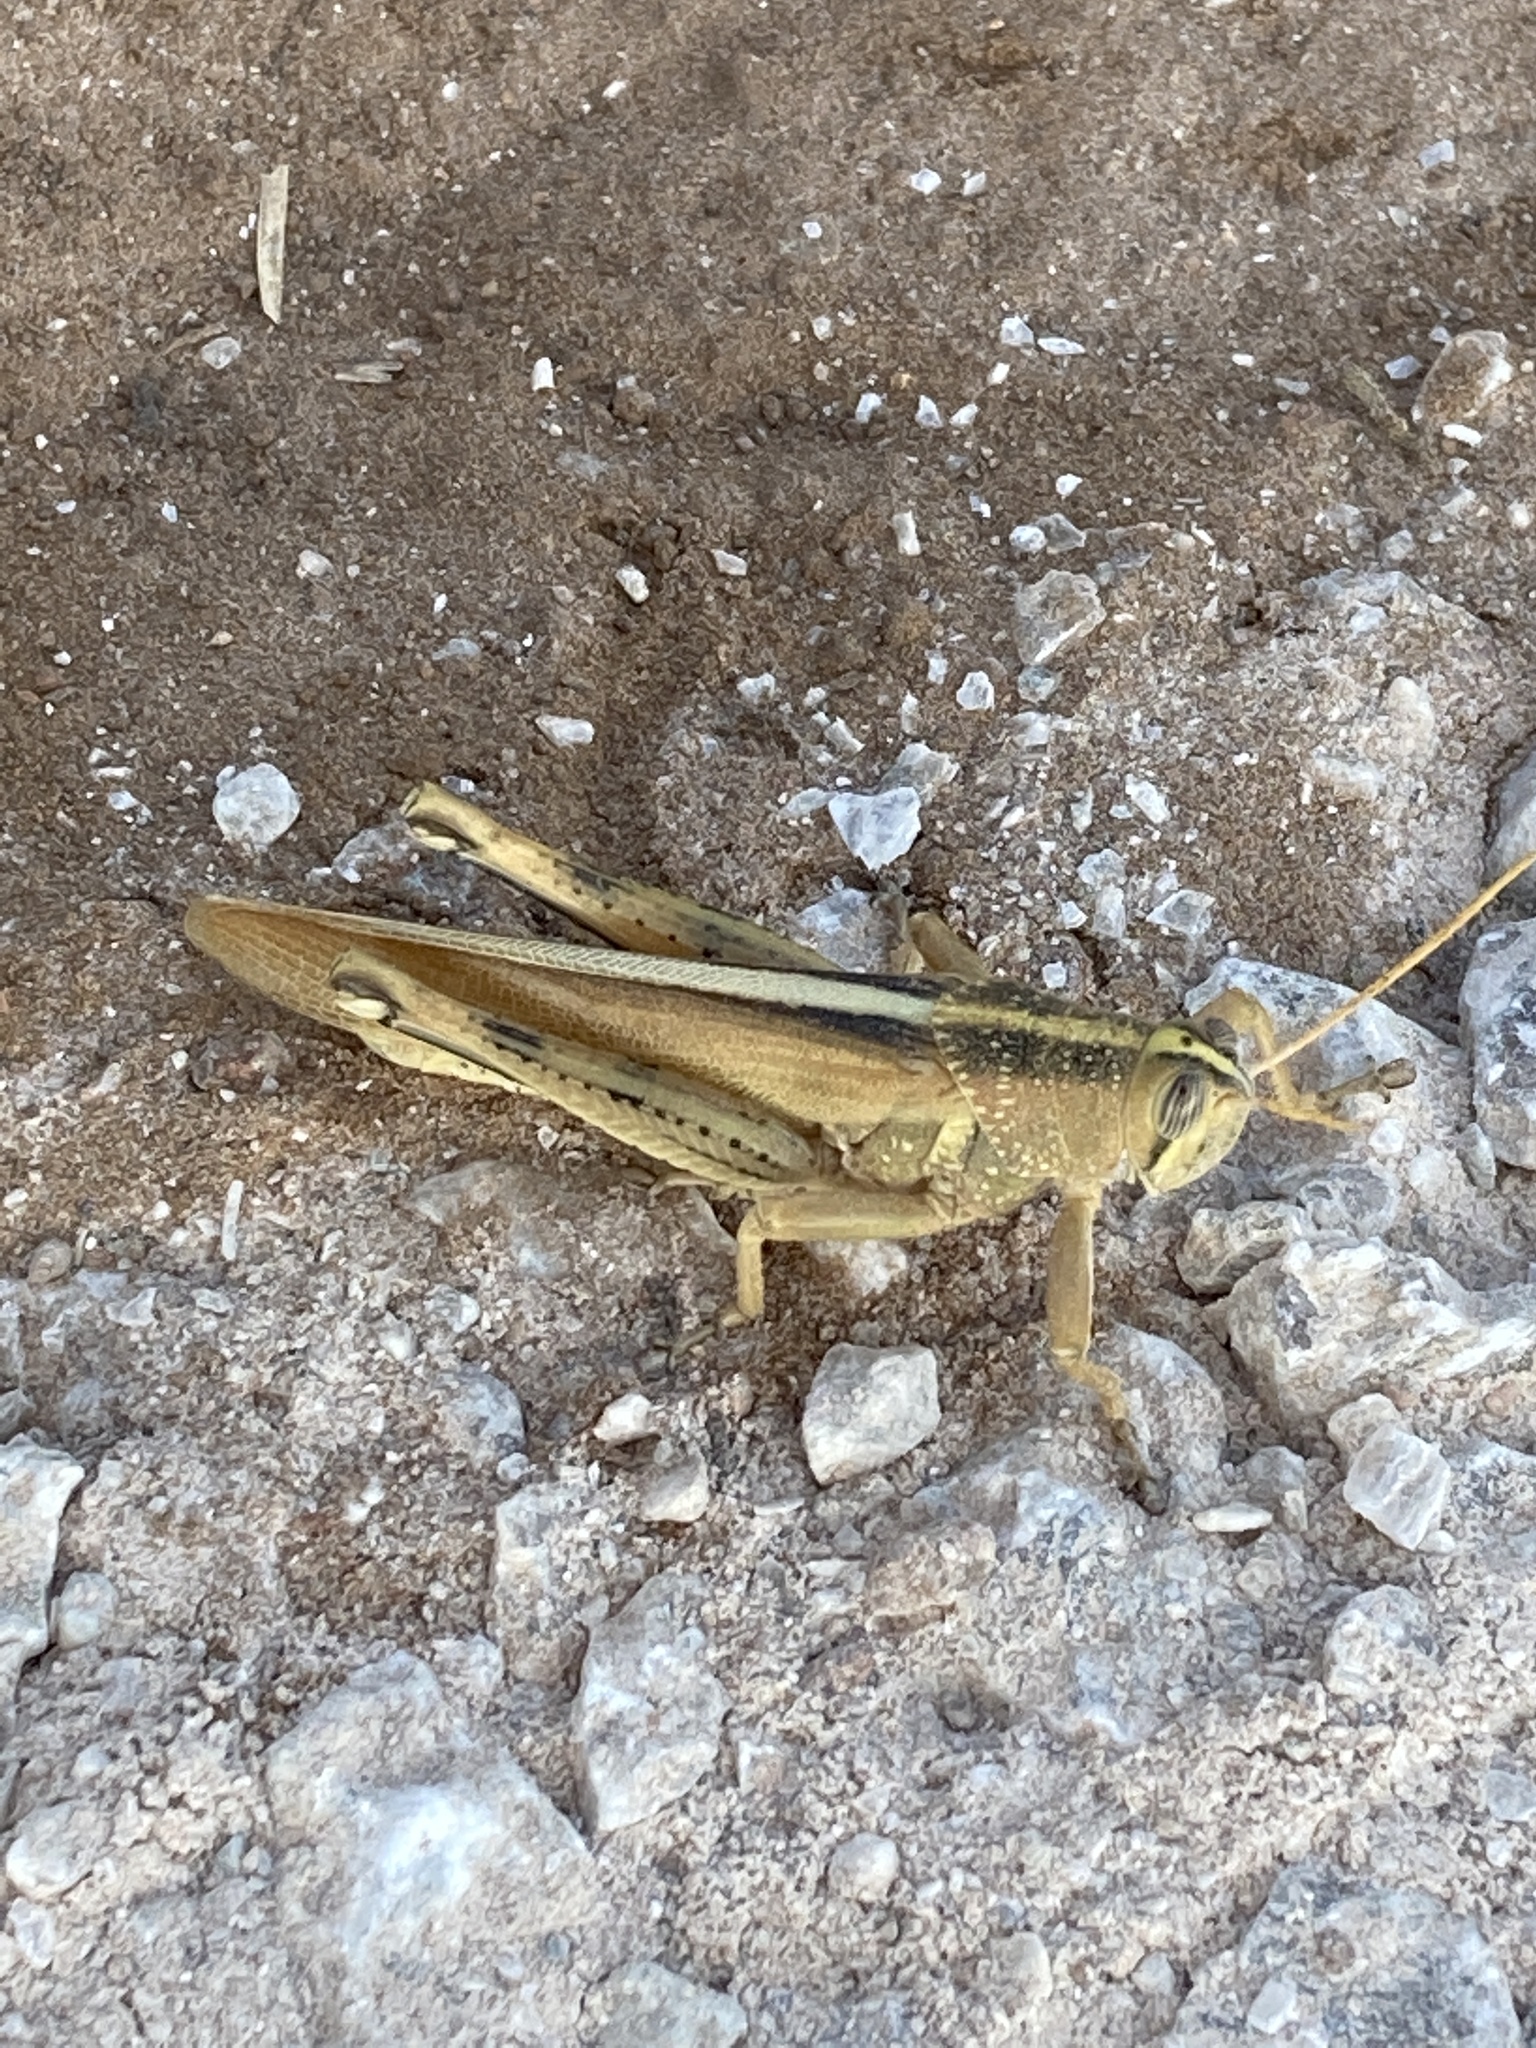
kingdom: Animalia
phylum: Arthropoda
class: Insecta
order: Orthoptera
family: Acrididae
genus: Schistocerca
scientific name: Schistocerca lineata
